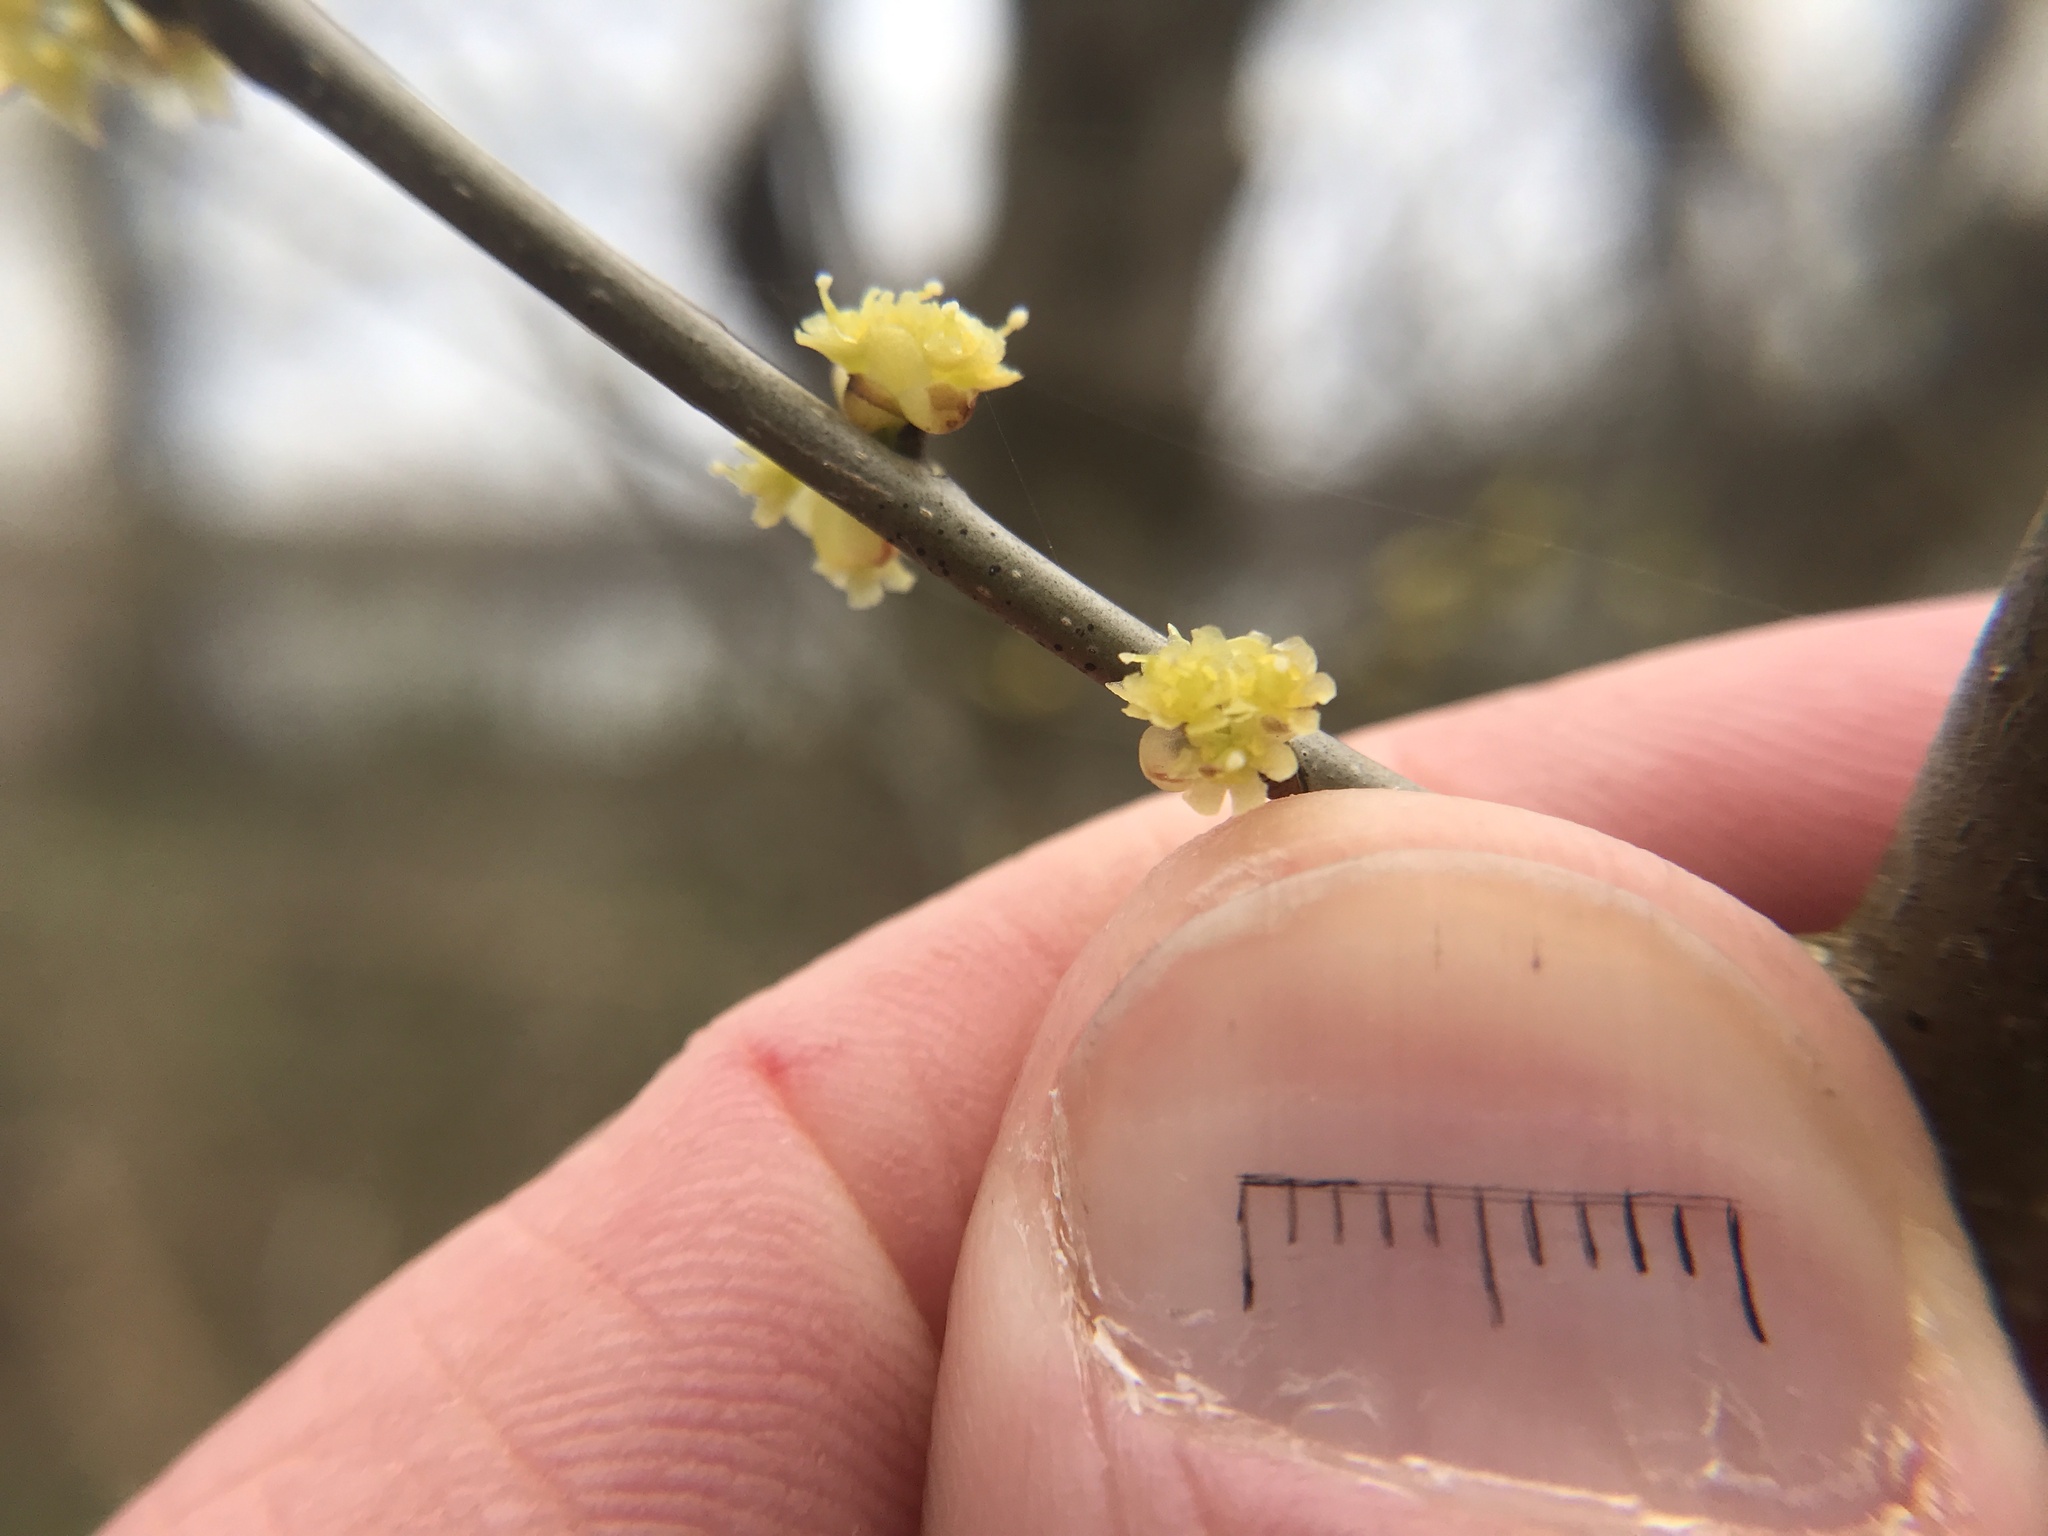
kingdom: Plantae
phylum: Tracheophyta
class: Magnoliopsida
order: Laurales
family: Lauraceae
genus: Lindera
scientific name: Lindera benzoin
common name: Spicebush
